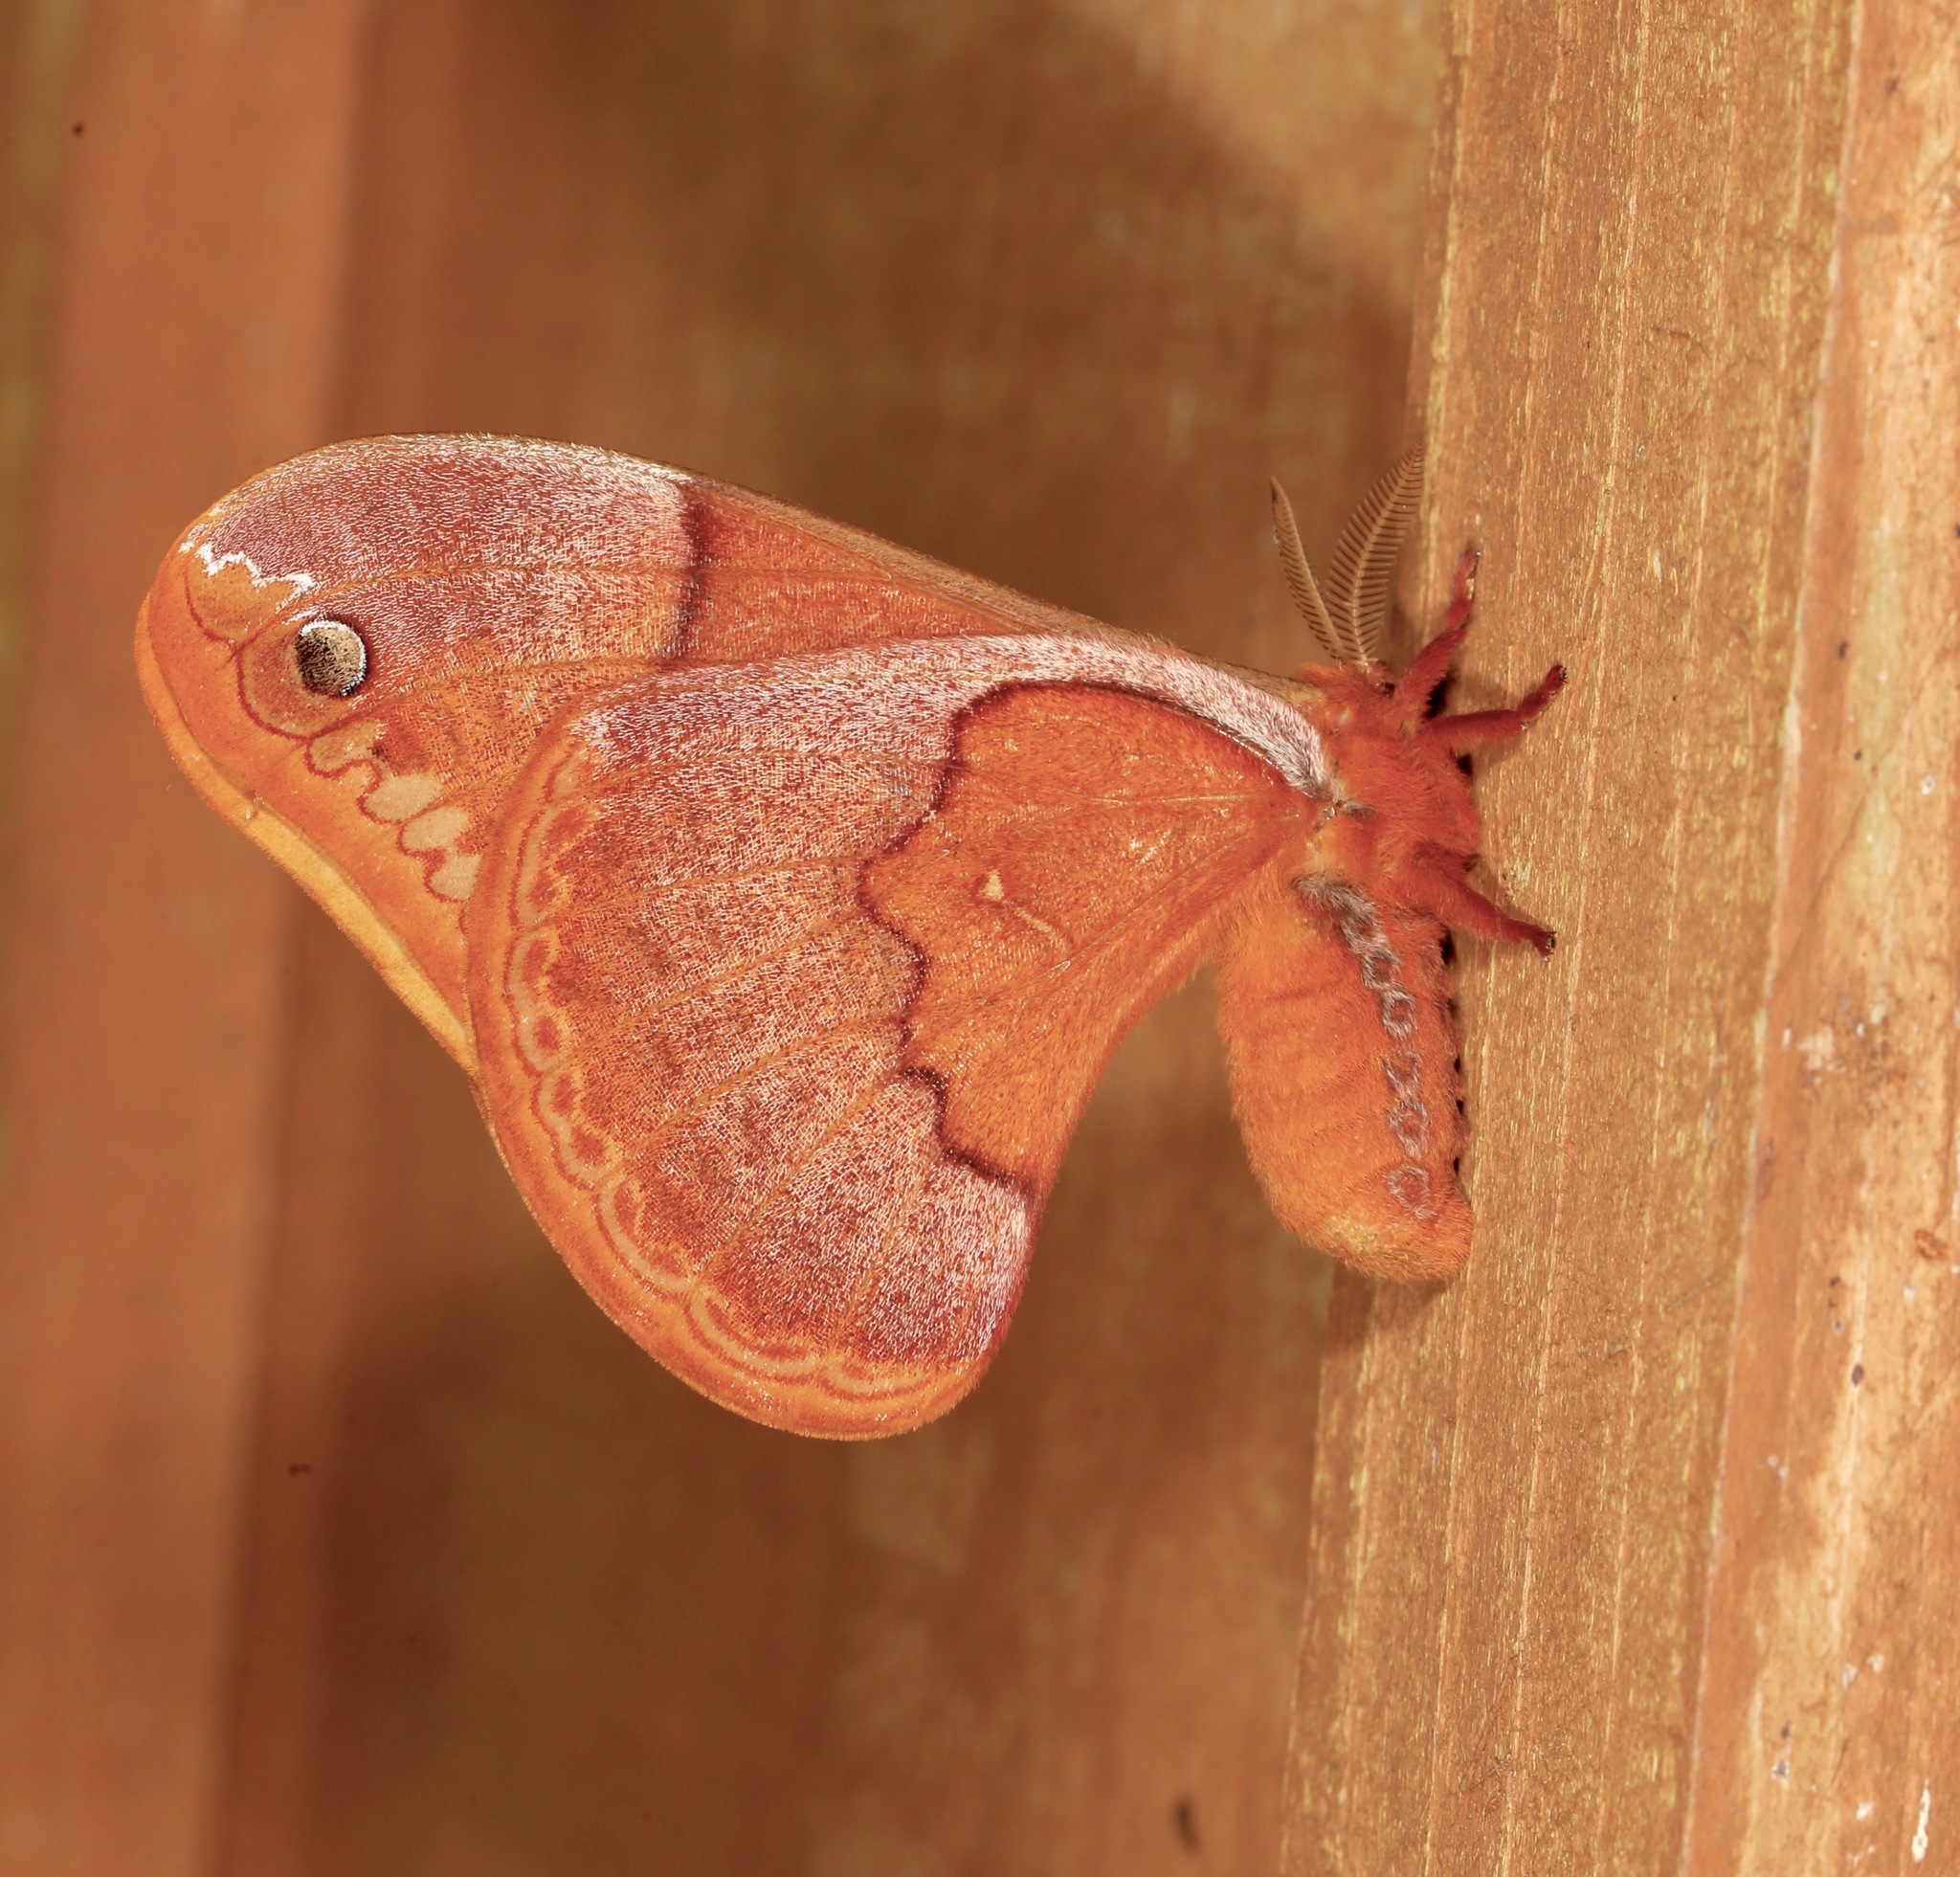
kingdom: Animalia
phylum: Arthropoda
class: Insecta
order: Lepidoptera
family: Saturniidae
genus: Callosamia
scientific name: Callosamia securifera
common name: Sweetbay silkmoth
